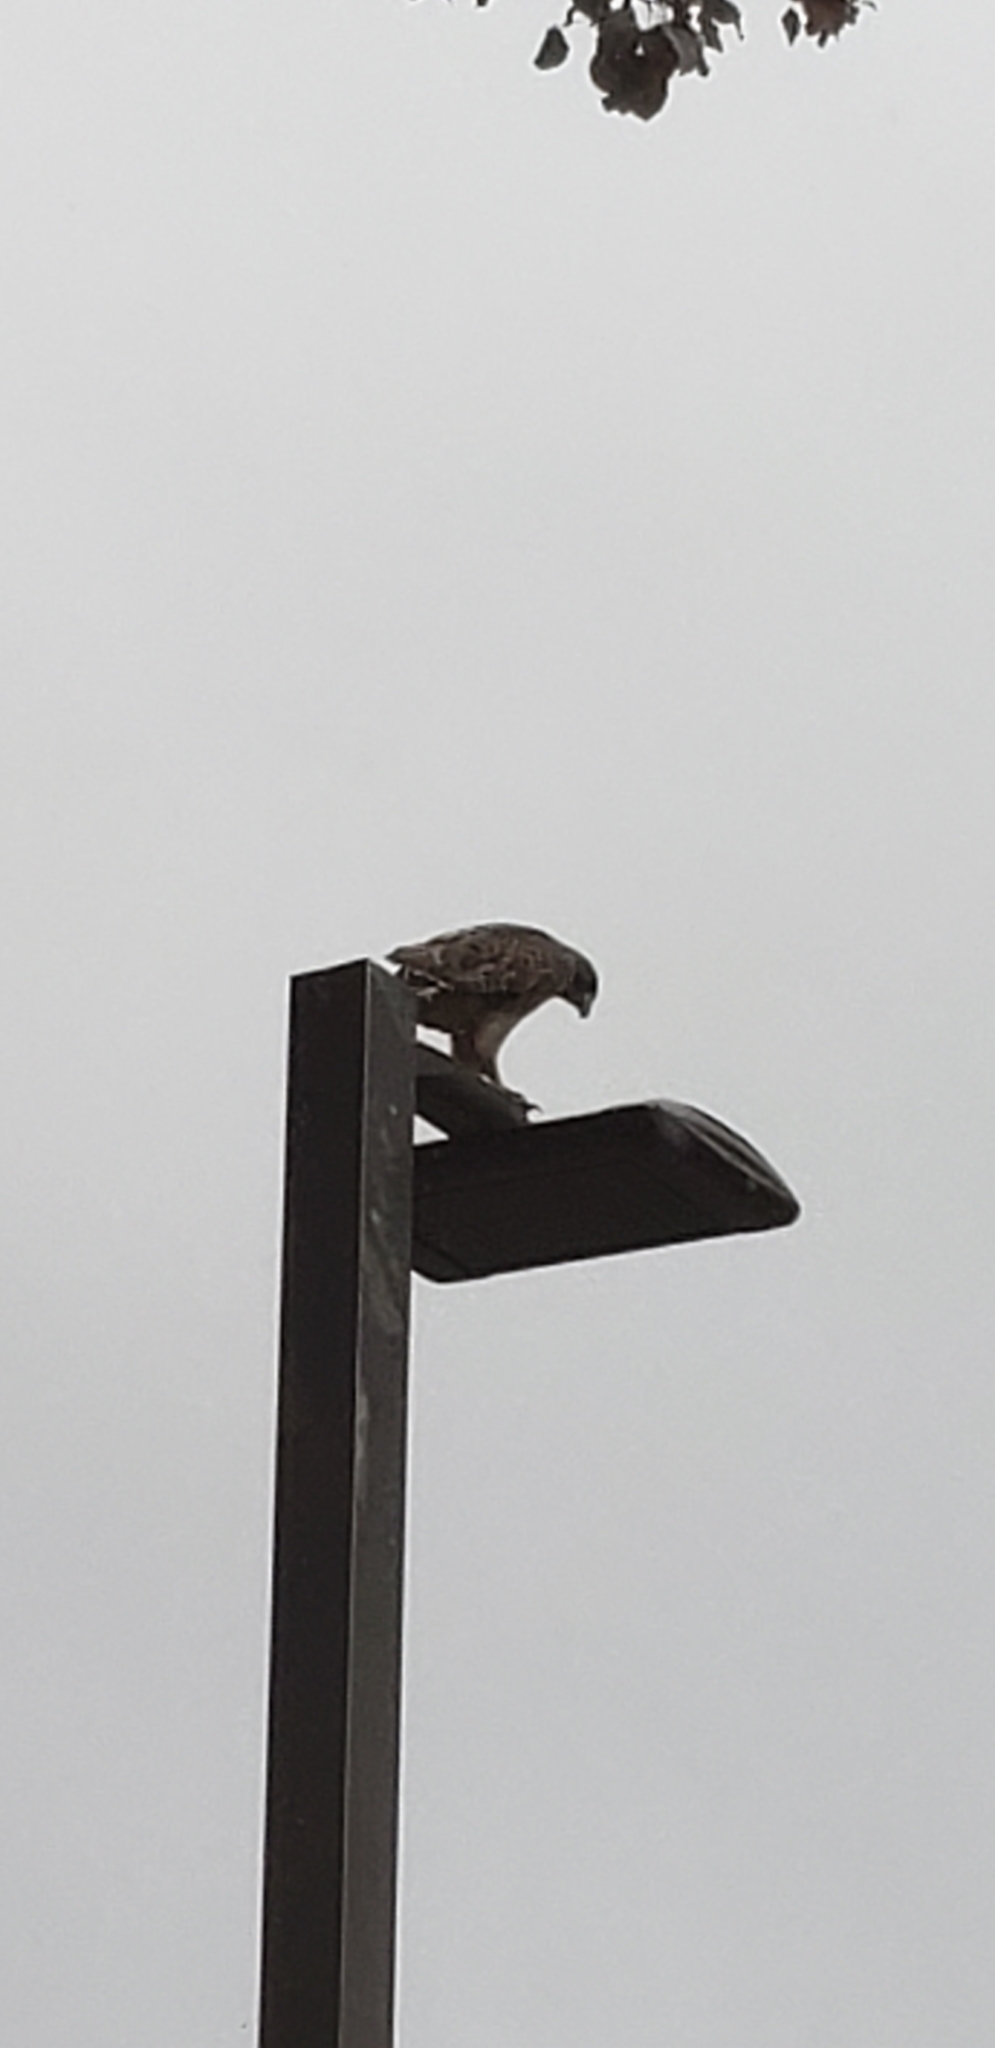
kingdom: Animalia
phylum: Chordata
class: Aves
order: Accipitriformes
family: Accipitridae
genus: Buteo
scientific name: Buteo jamaicensis
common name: Red-tailed hawk
